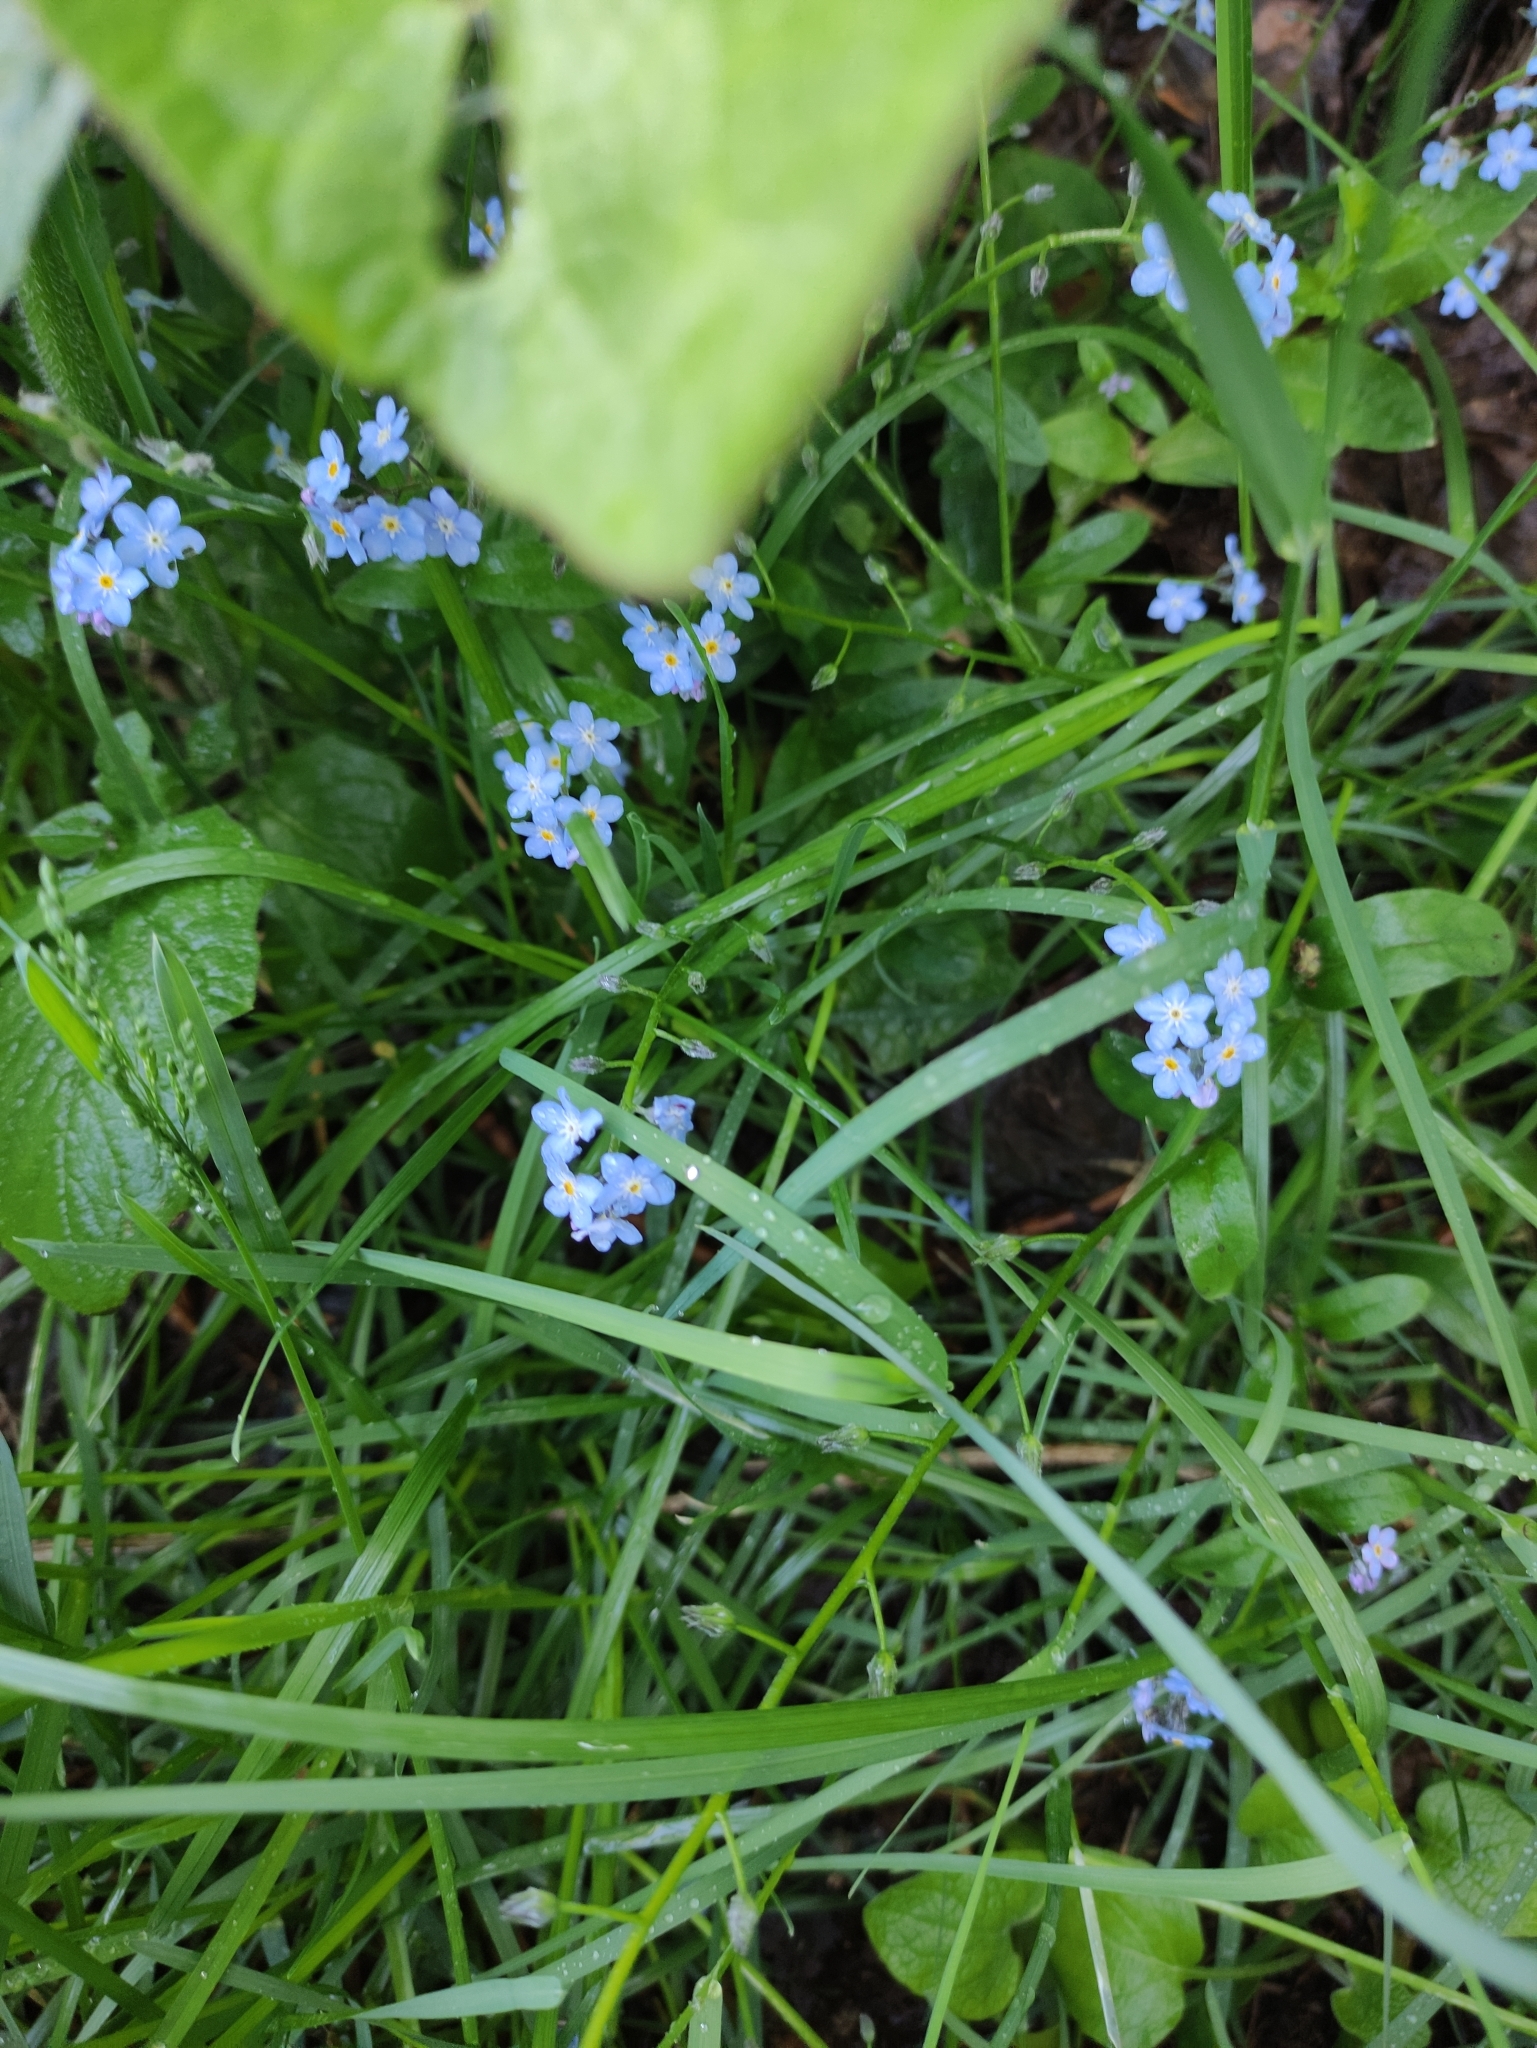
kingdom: Plantae
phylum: Tracheophyta
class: Magnoliopsida
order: Boraginales
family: Boraginaceae
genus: Myosotis
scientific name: Myosotis sylvatica
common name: Wood forget-me-not
